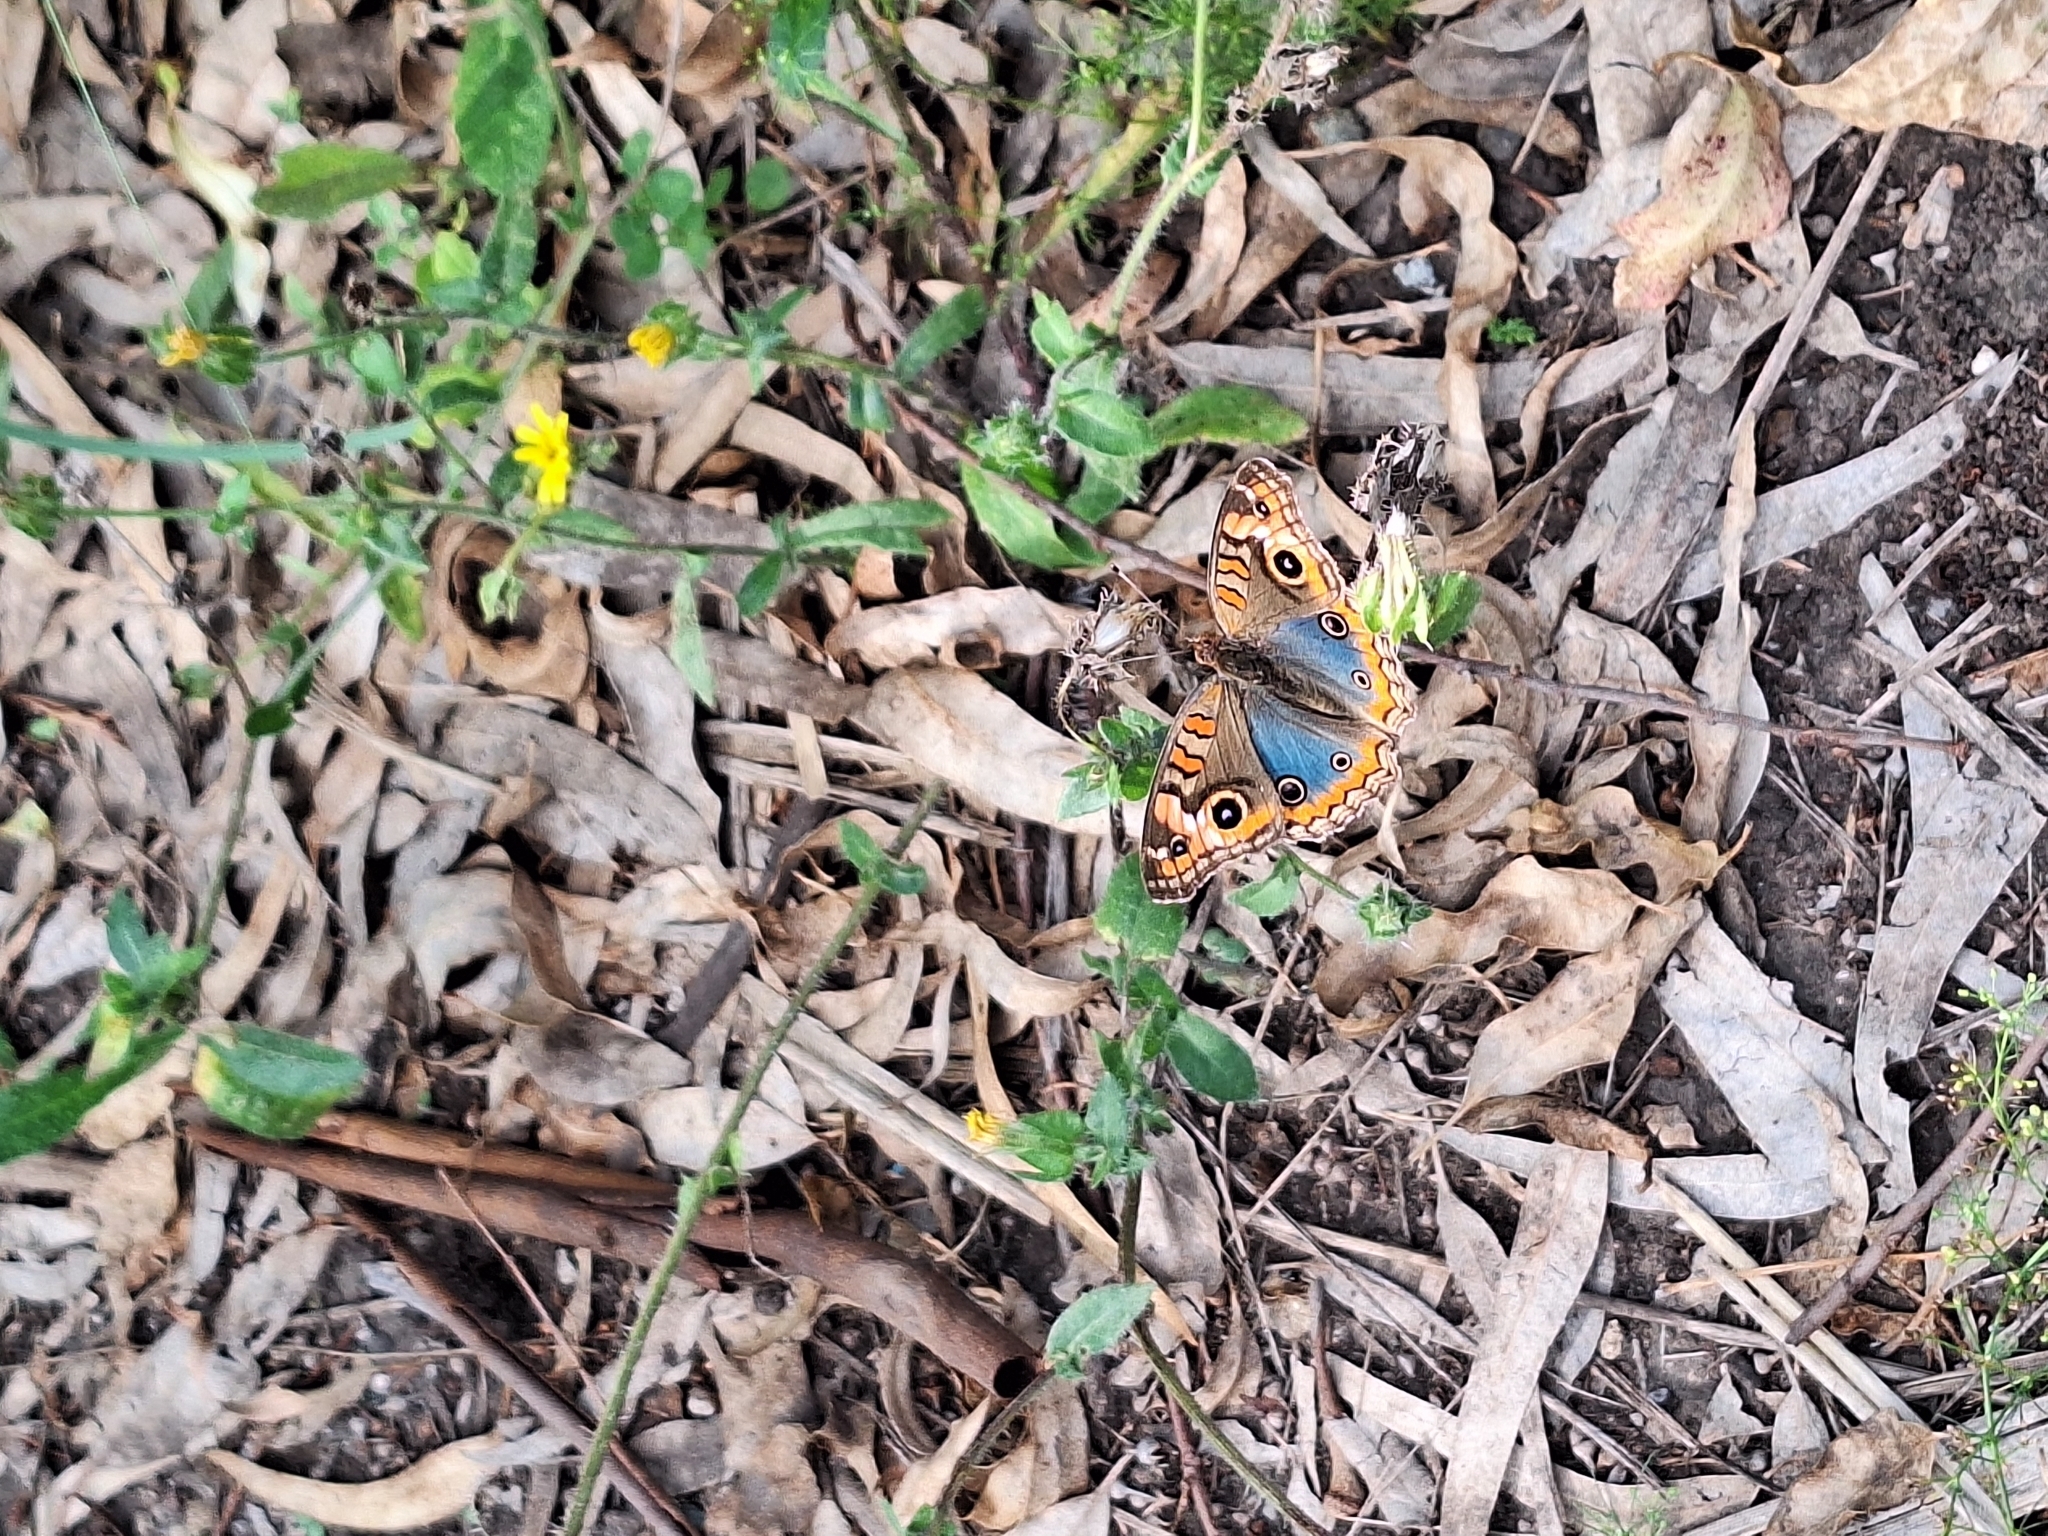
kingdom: Animalia
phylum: Arthropoda
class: Insecta
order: Lepidoptera
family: Nymphalidae
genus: Junonia
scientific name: Junonia lavinia
